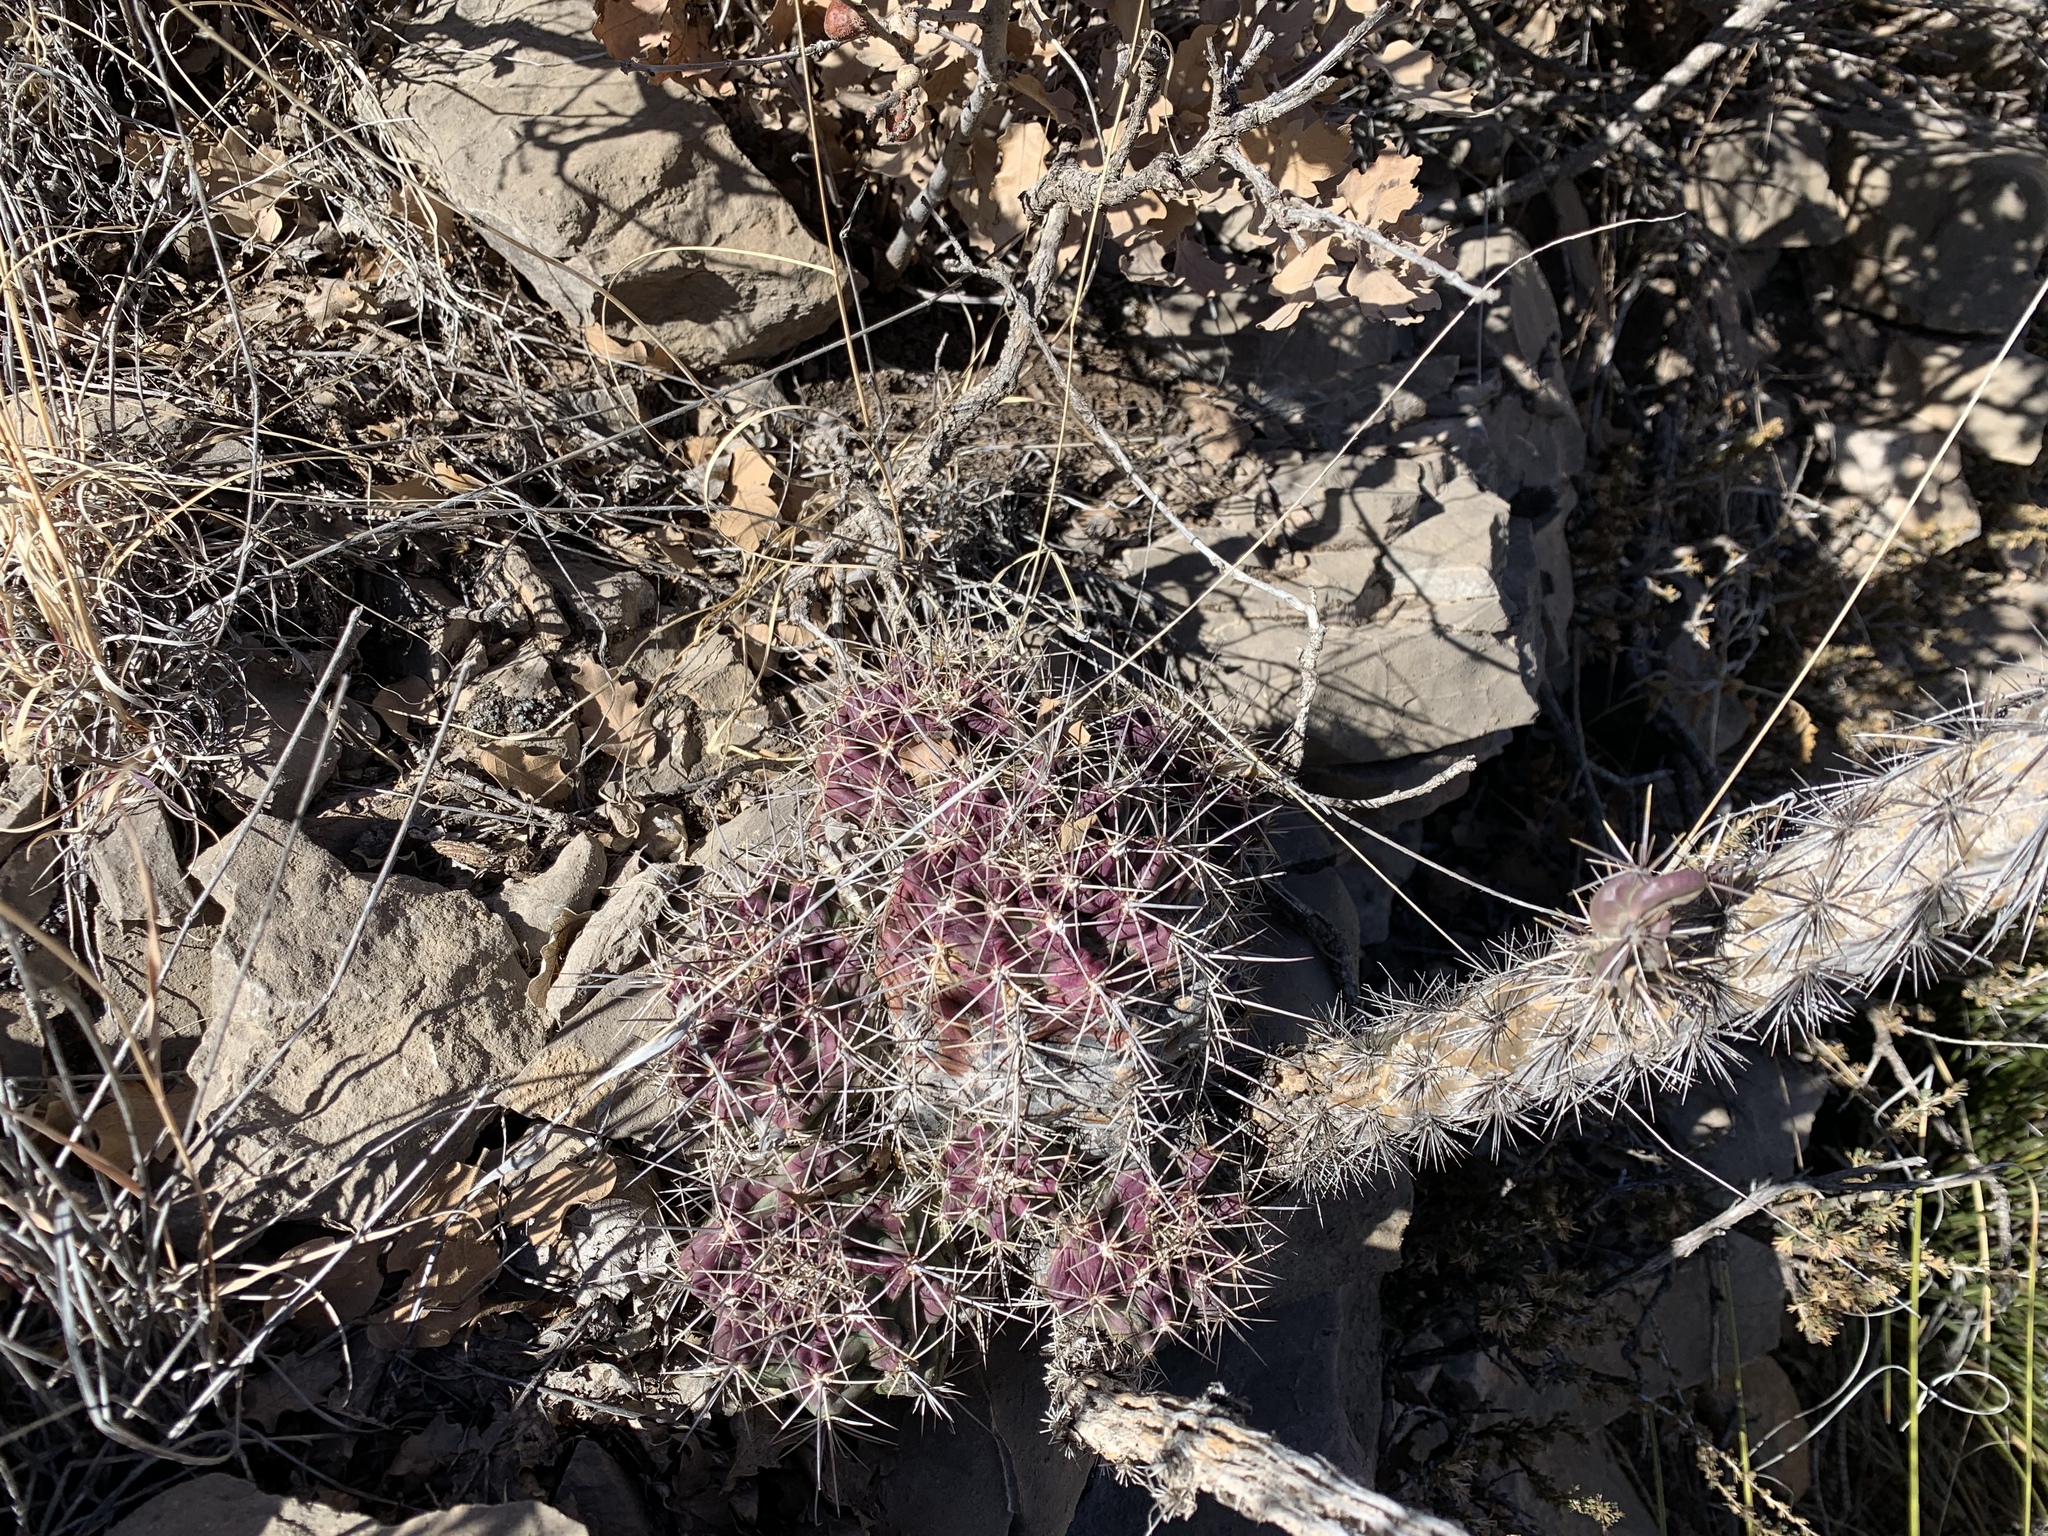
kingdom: Plantae
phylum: Tracheophyta
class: Magnoliopsida
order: Caryophyllales
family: Cactaceae
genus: Echinocereus
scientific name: Echinocereus coccineus
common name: Scarlet hedgehog cactus
